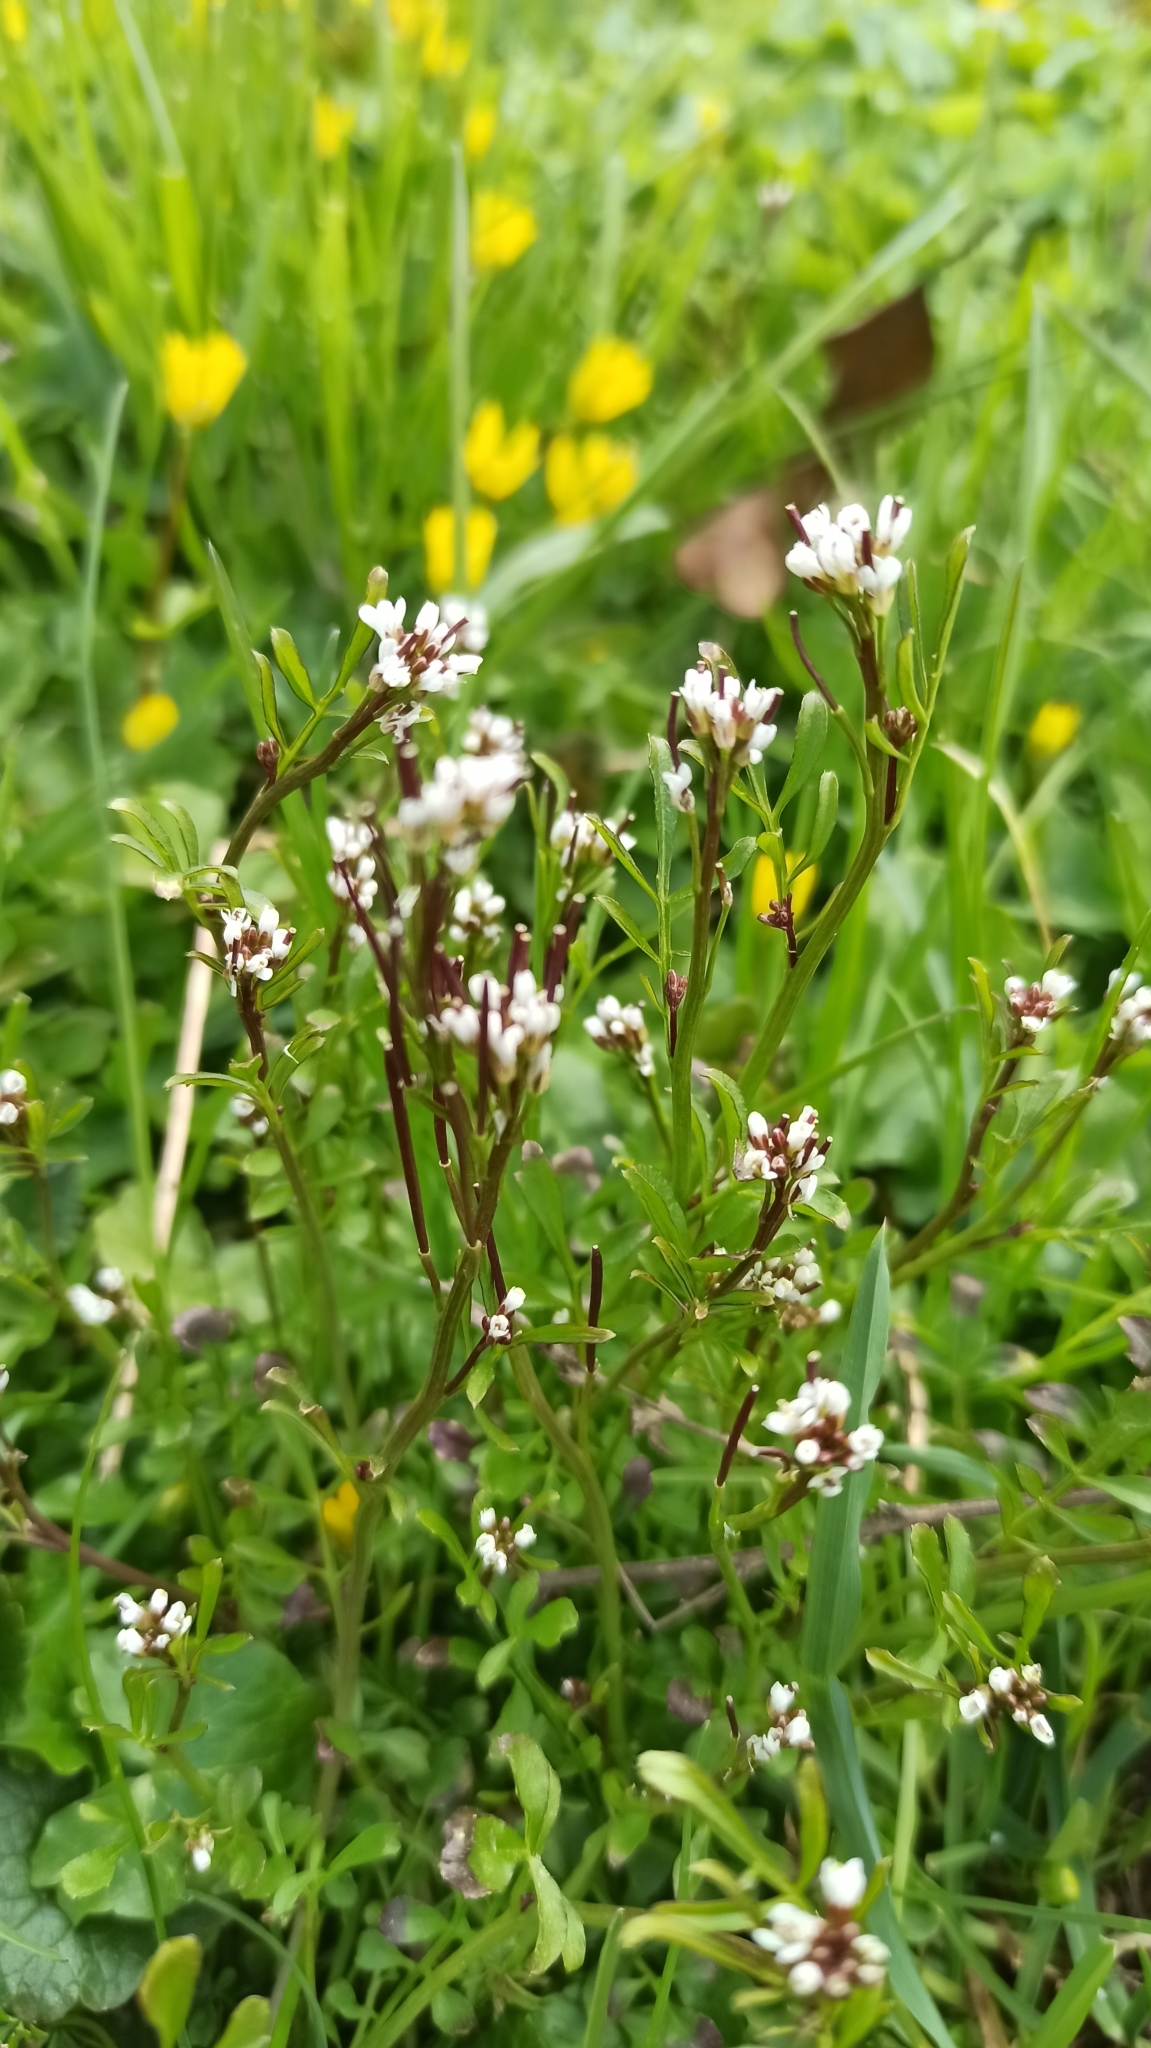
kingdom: Plantae
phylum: Tracheophyta
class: Magnoliopsida
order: Brassicales
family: Brassicaceae
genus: Cardamine
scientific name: Cardamine hirsuta
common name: Hairy bittercress
